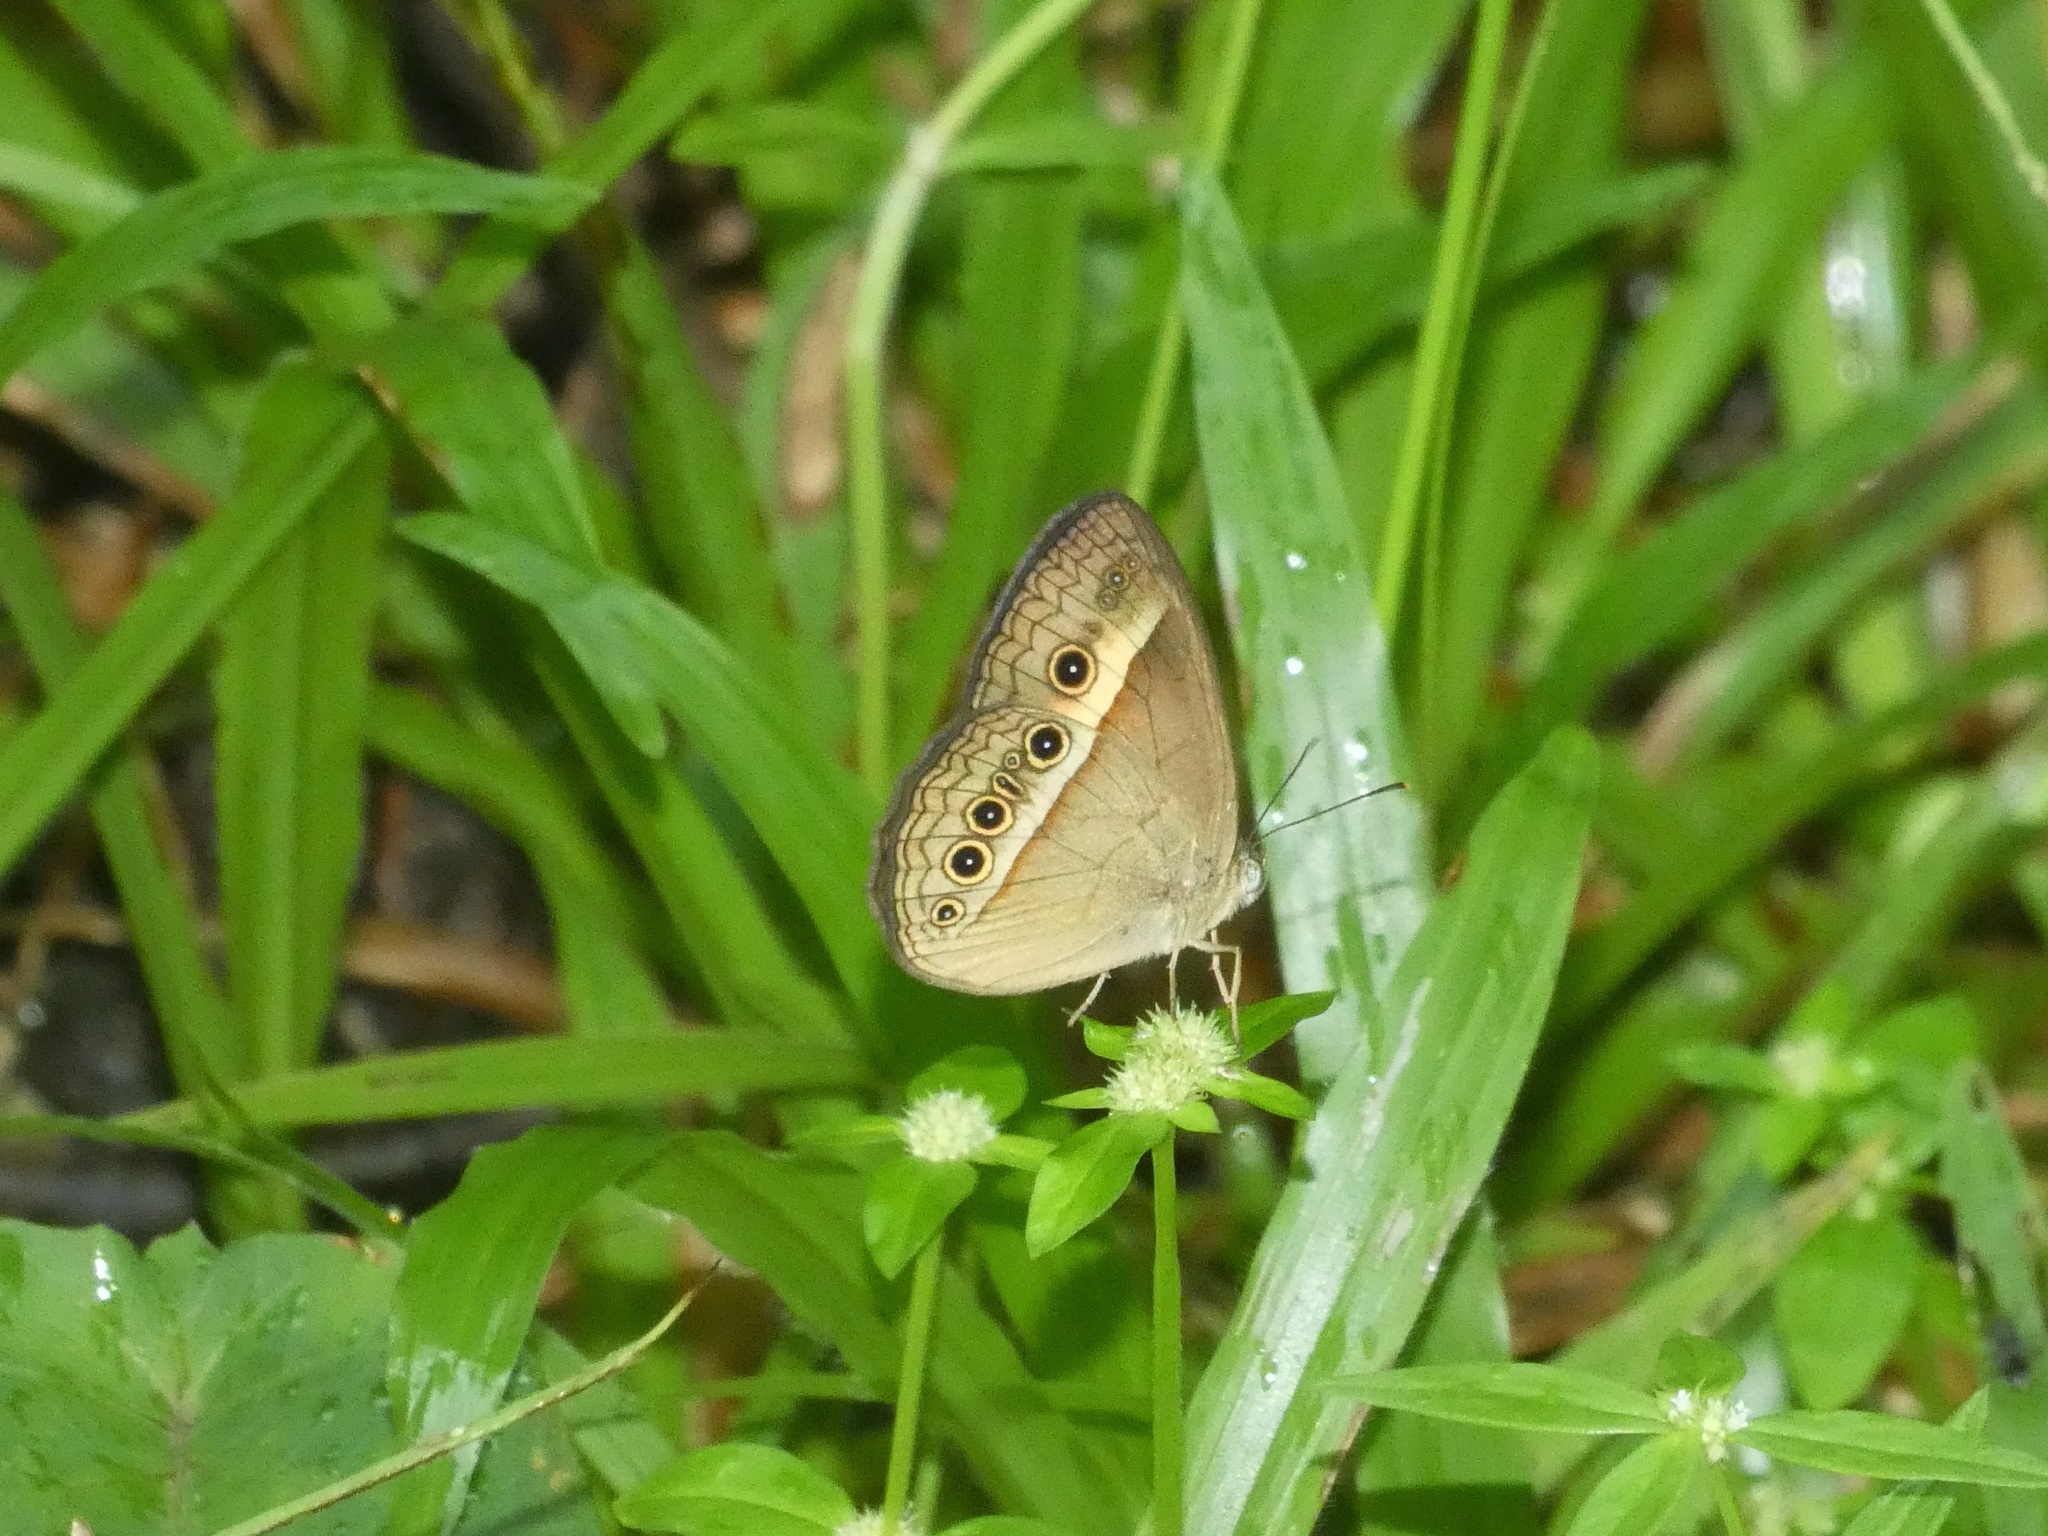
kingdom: Animalia
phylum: Arthropoda
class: Insecta
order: Lepidoptera
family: Nymphalidae
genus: Mycalesis
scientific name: Mycalesis terminus
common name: Orange bushbrown
